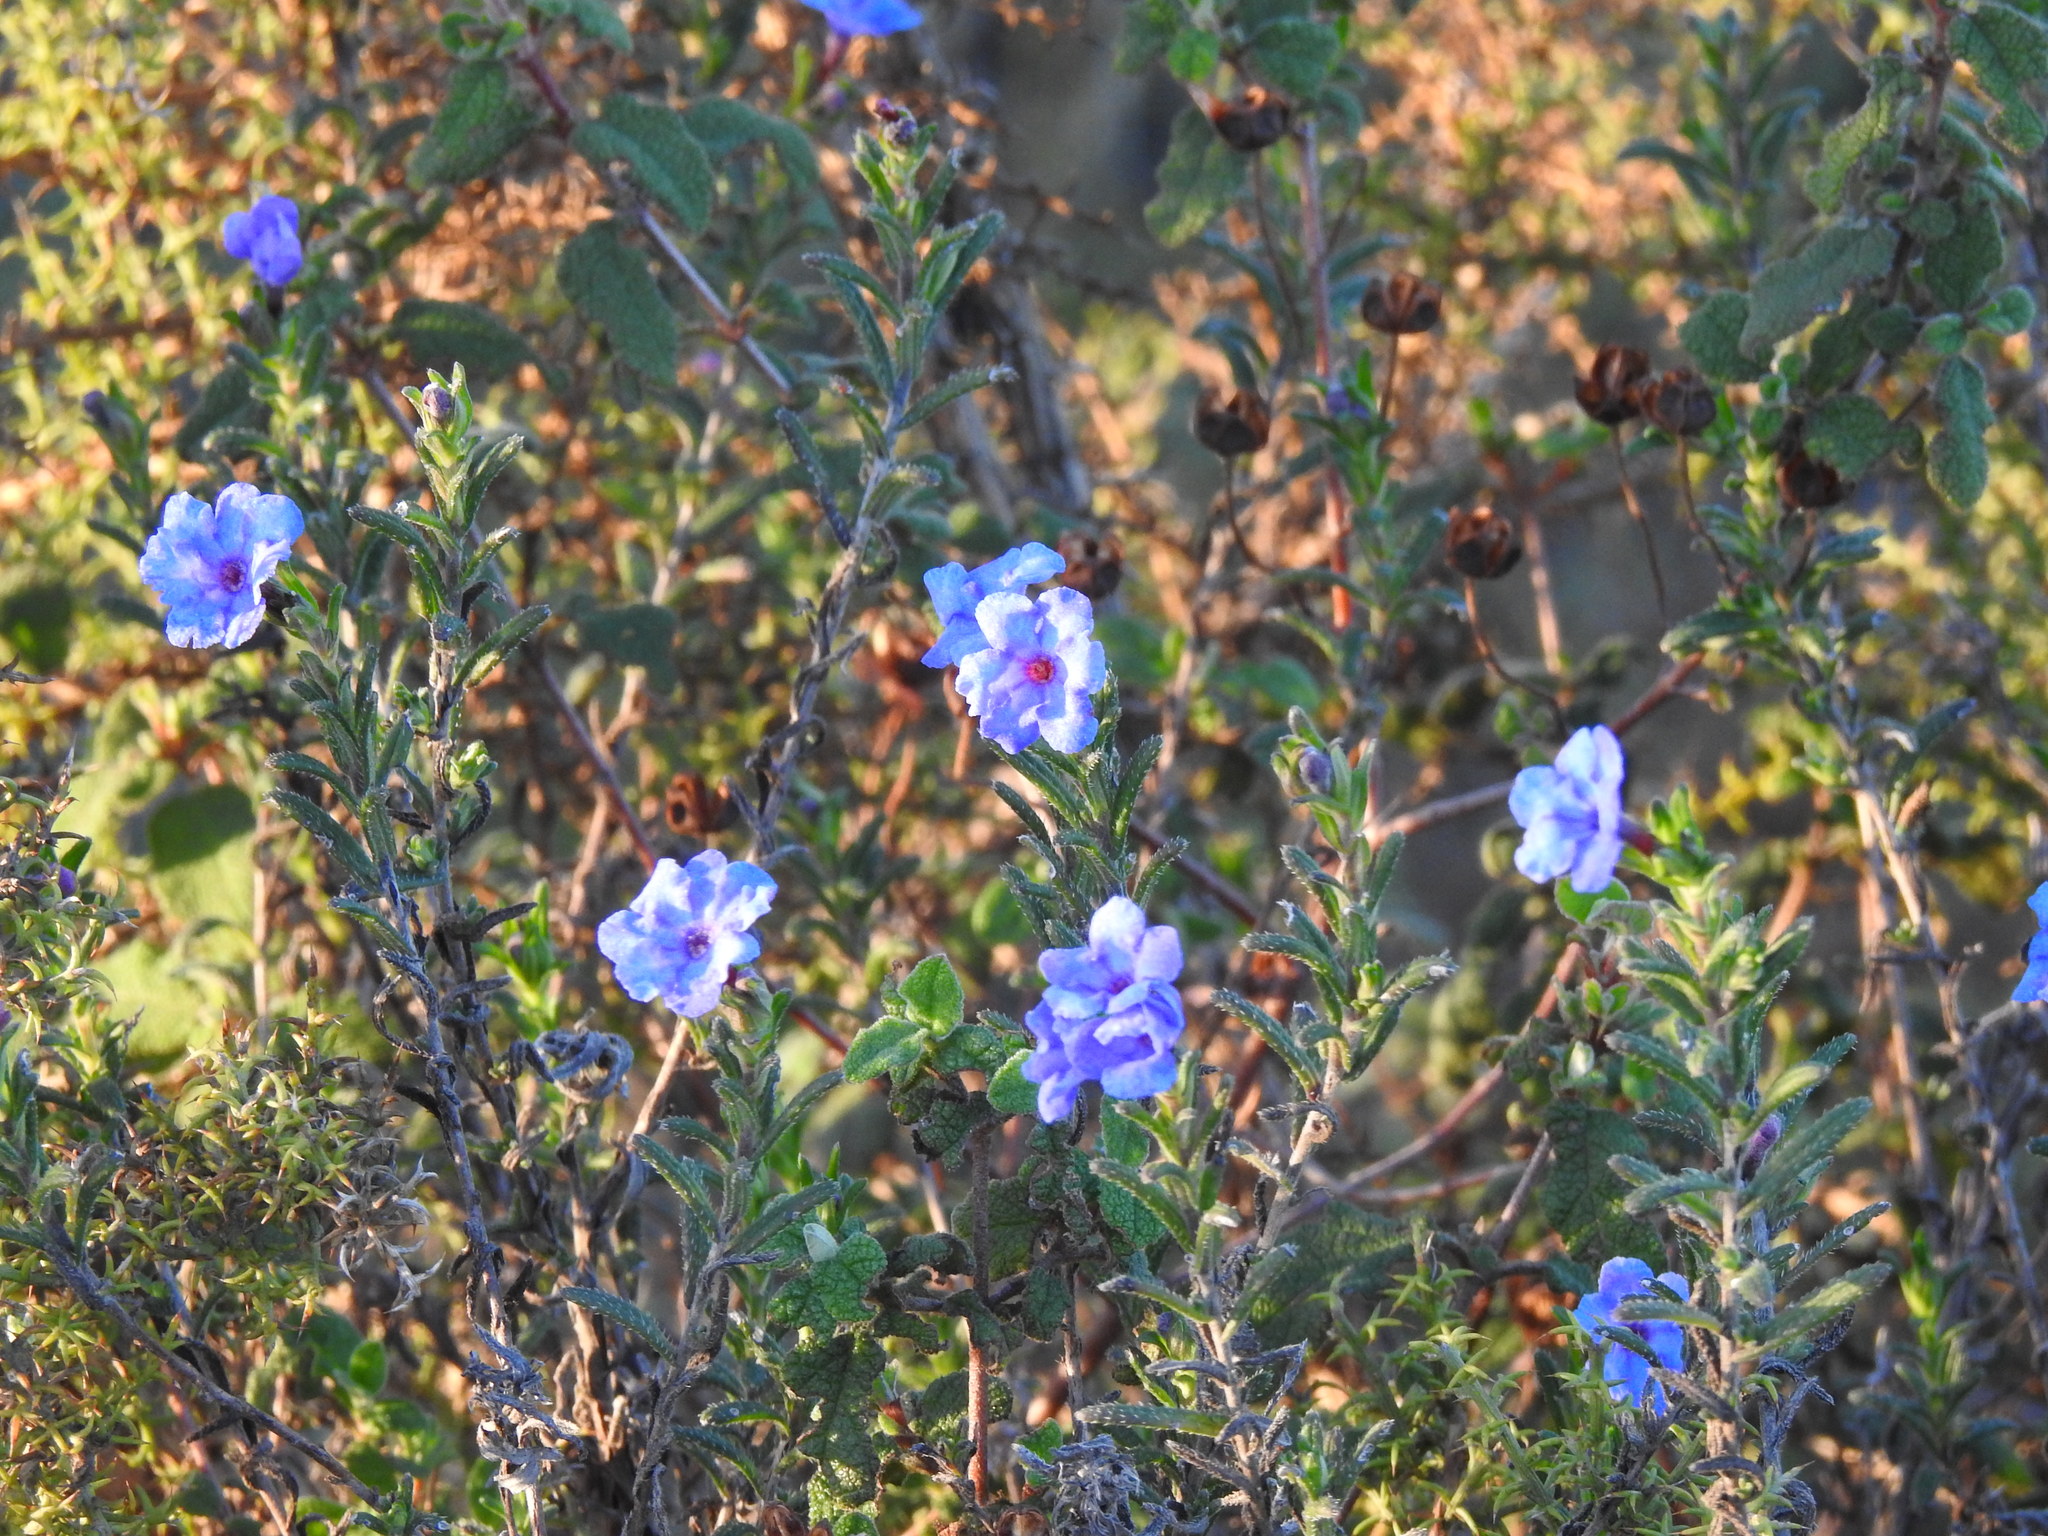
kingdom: Plantae
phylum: Tracheophyta
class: Magnoliopsida
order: Boraginales
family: Boraginaceae
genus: Glandora
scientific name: Glandora prostrata
